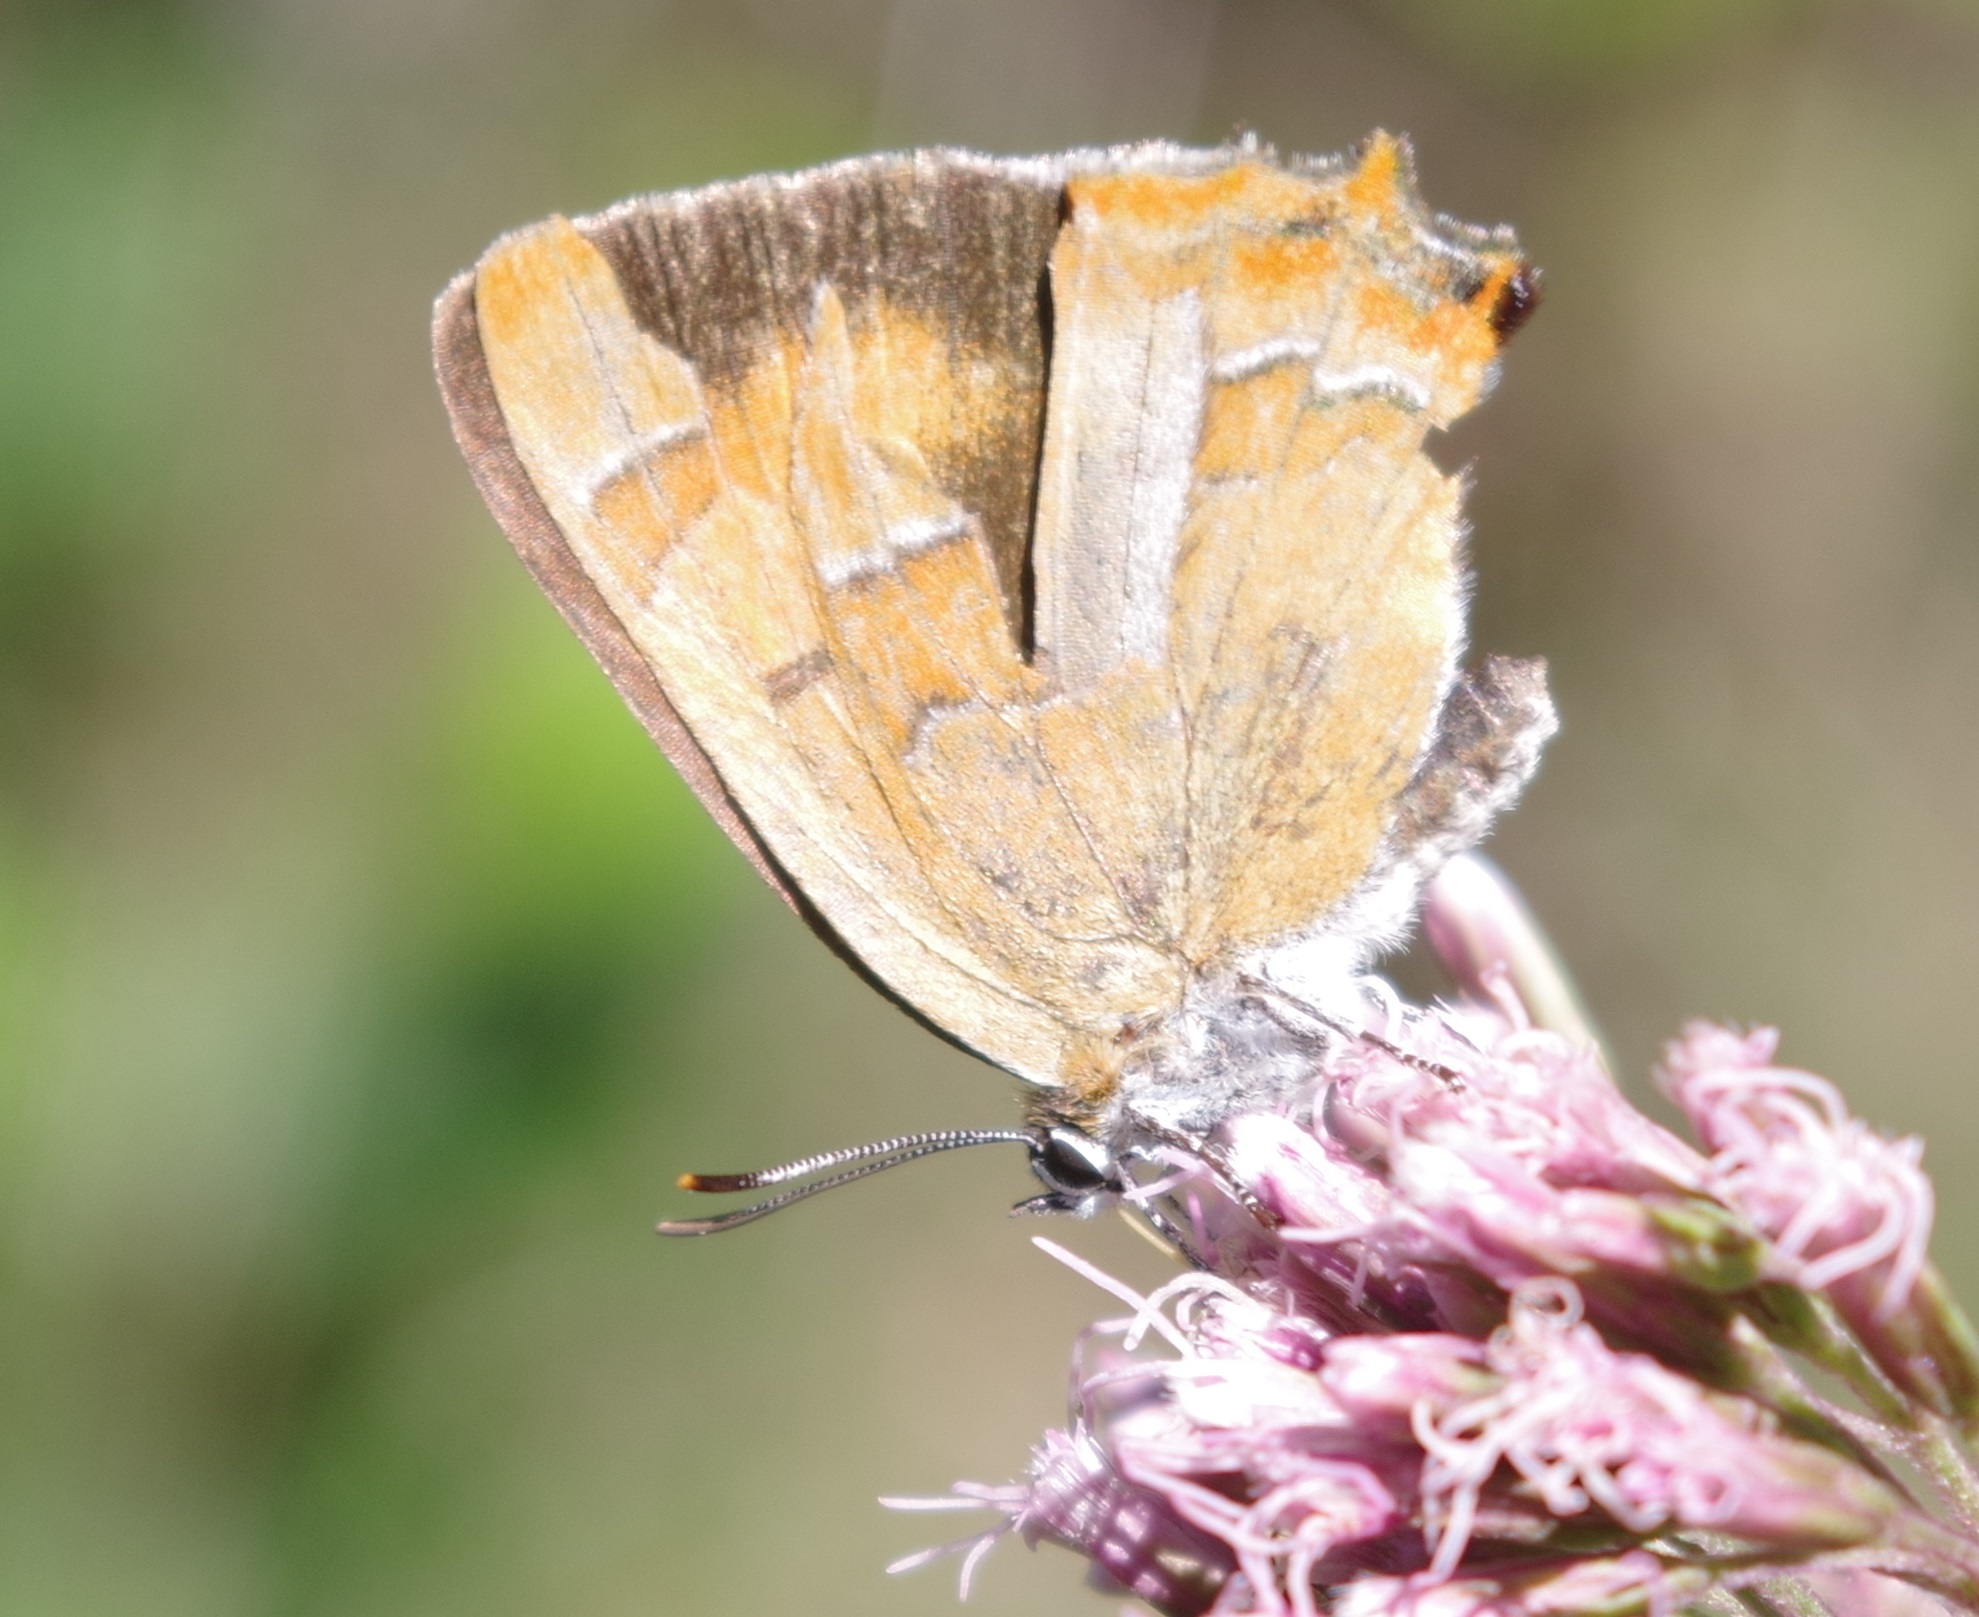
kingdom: Animalia
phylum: Arthropoda
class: Insecta
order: Lepidoptera
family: Lycaenidae
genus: Thecla
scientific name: Thecla betulae
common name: Brown hairstreak
